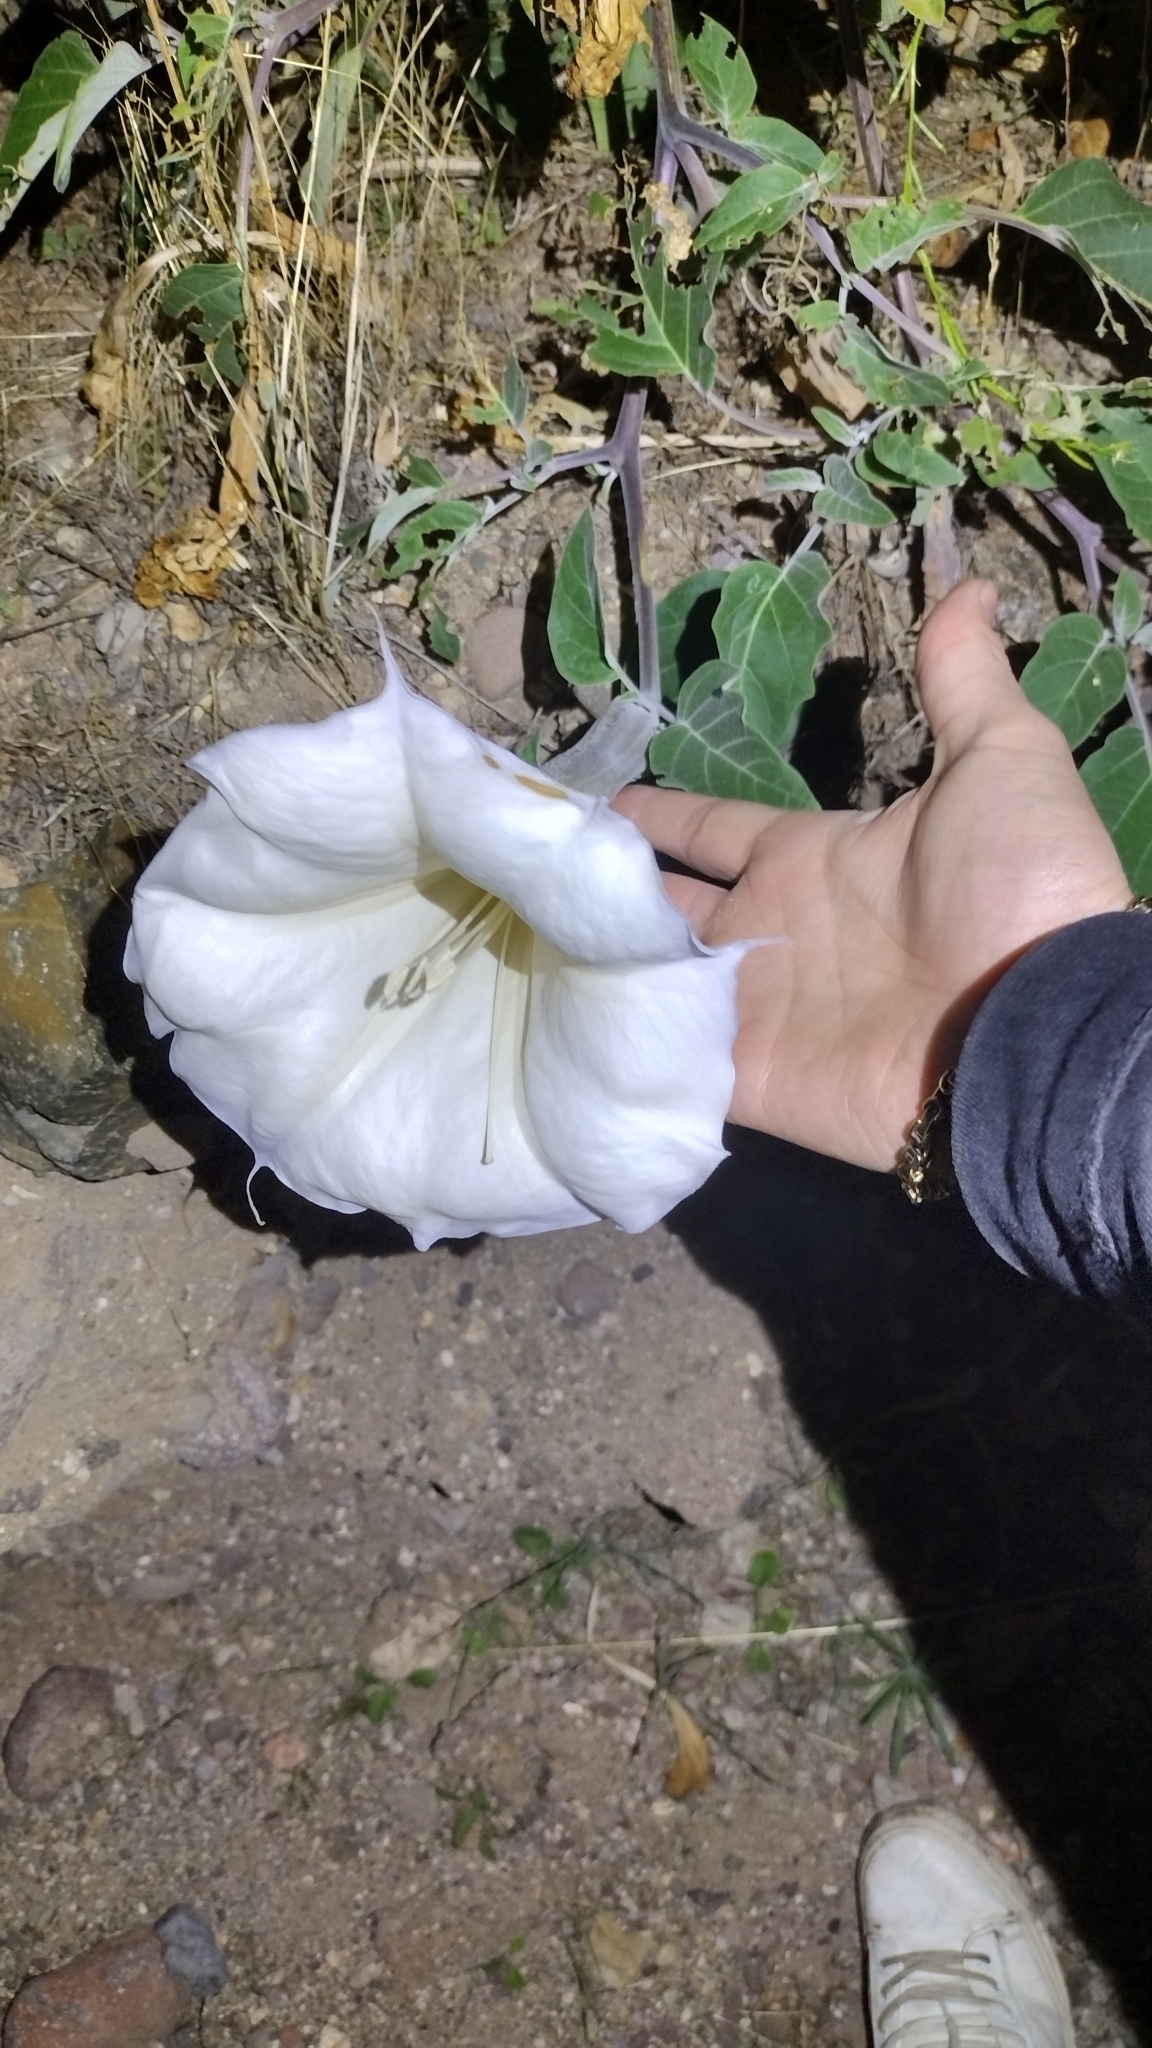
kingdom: Plantae
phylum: Tracheophyta
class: Magnoliopsida
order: Solanales
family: Solanaceae
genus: Datura
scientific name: Datura wrightii
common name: Sacred thorn-apple
